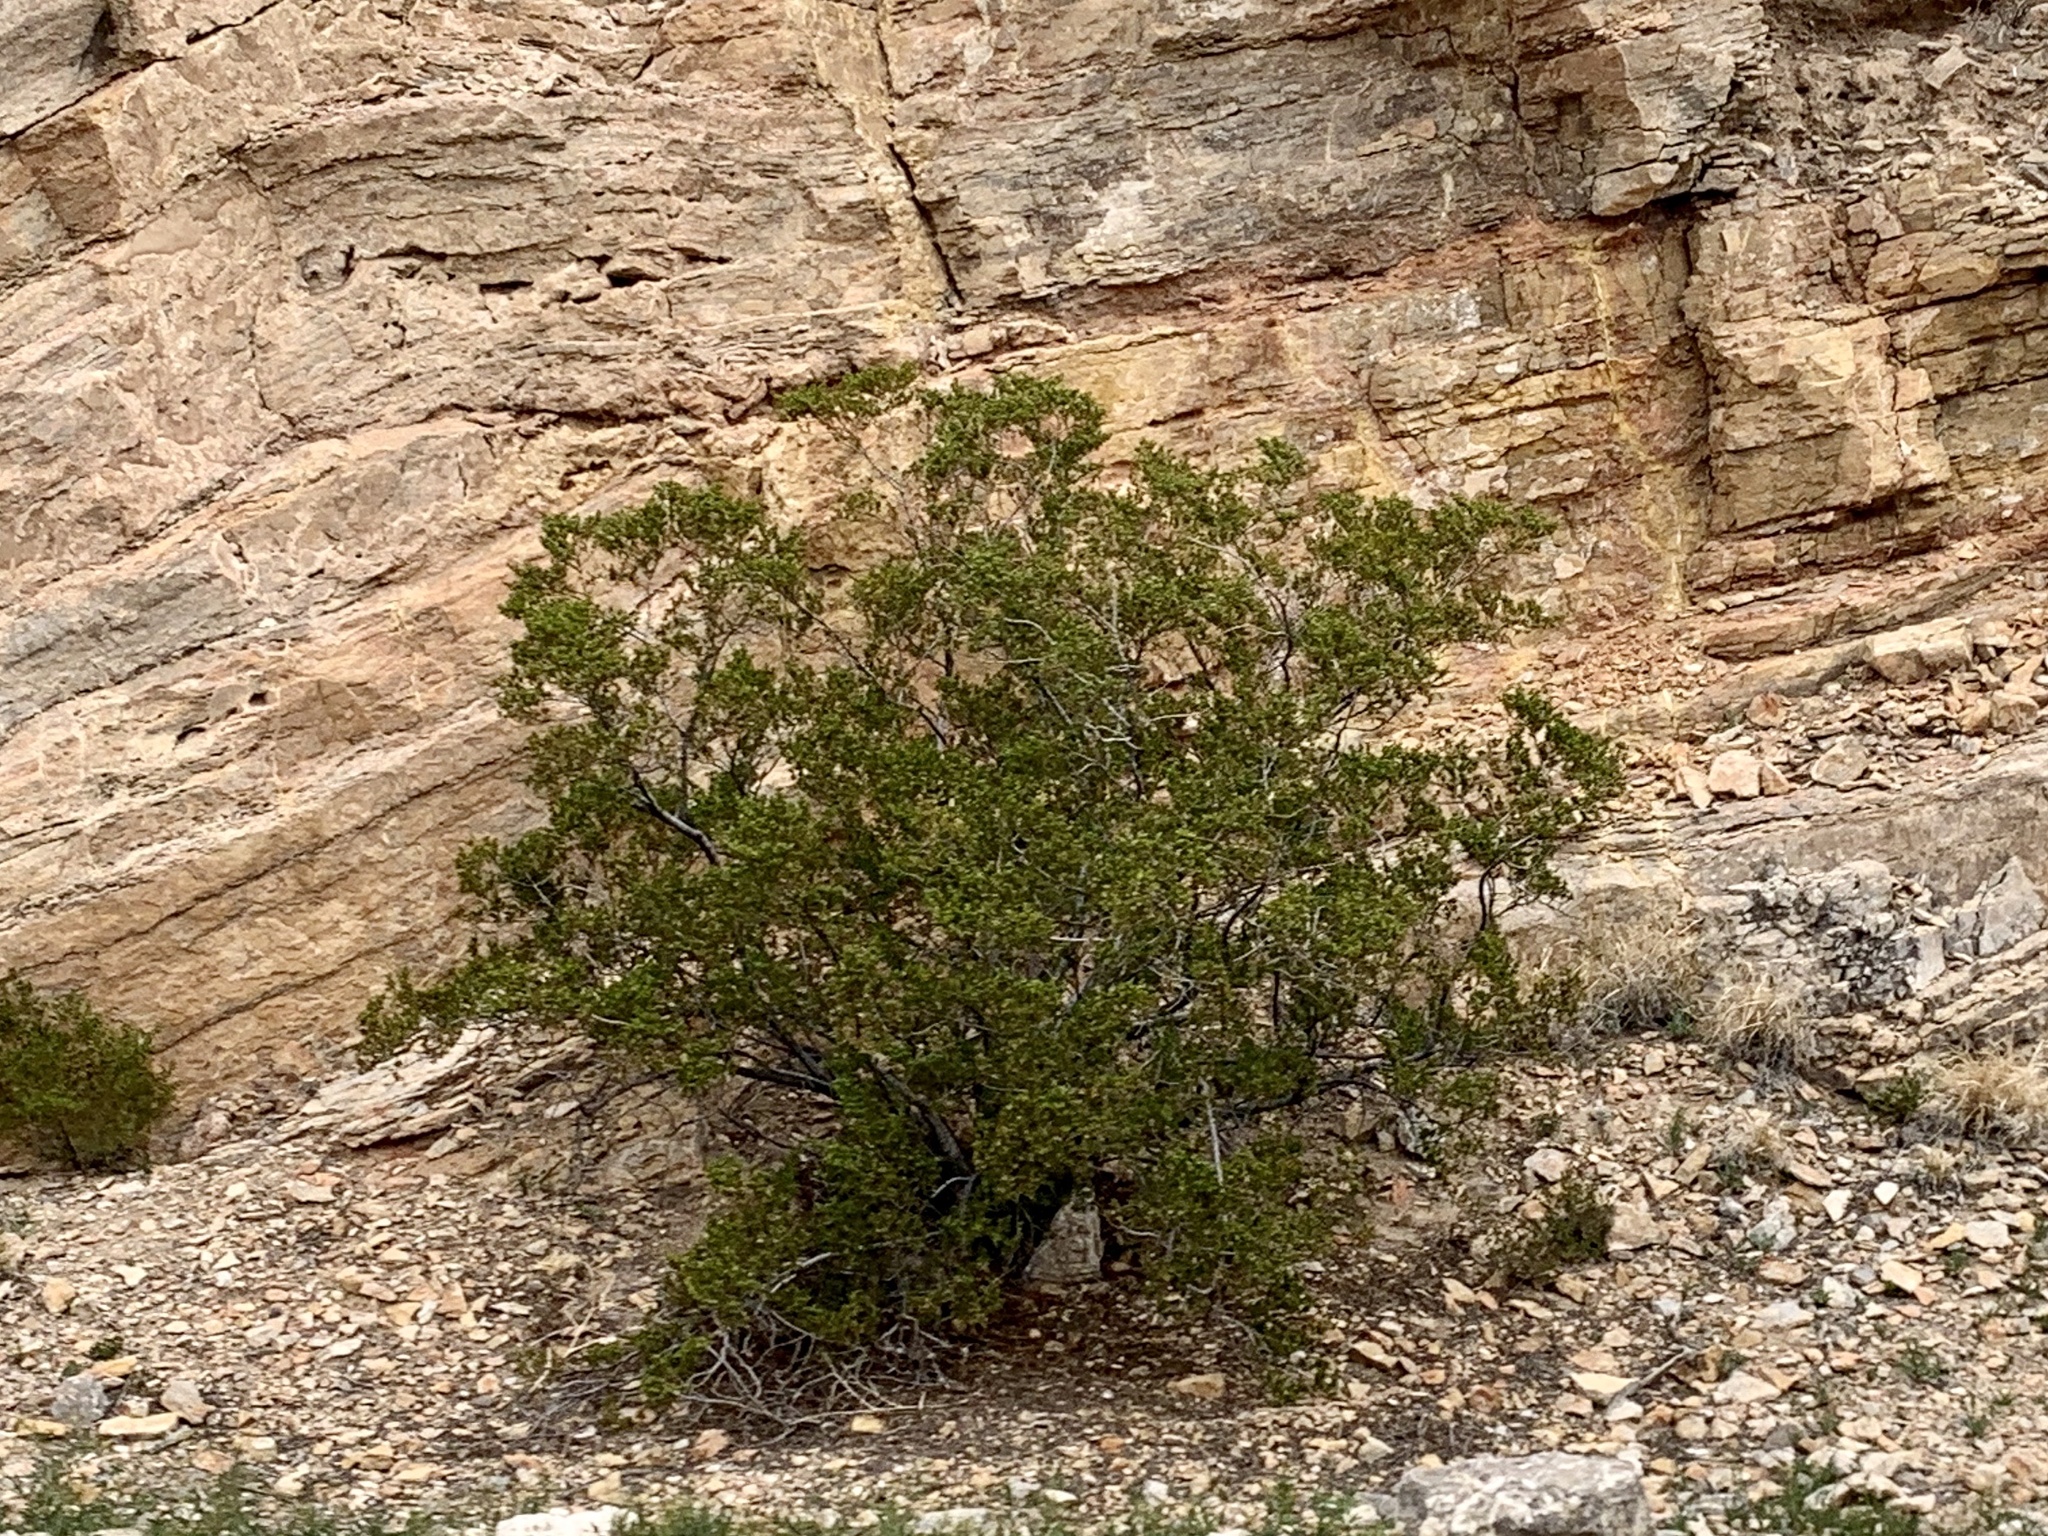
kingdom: Plantae
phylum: Tracheophyta
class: Magnoliopsida
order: Zygophyllales
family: Zygophyllaceae
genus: Larrea
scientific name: Larrea tridentata
